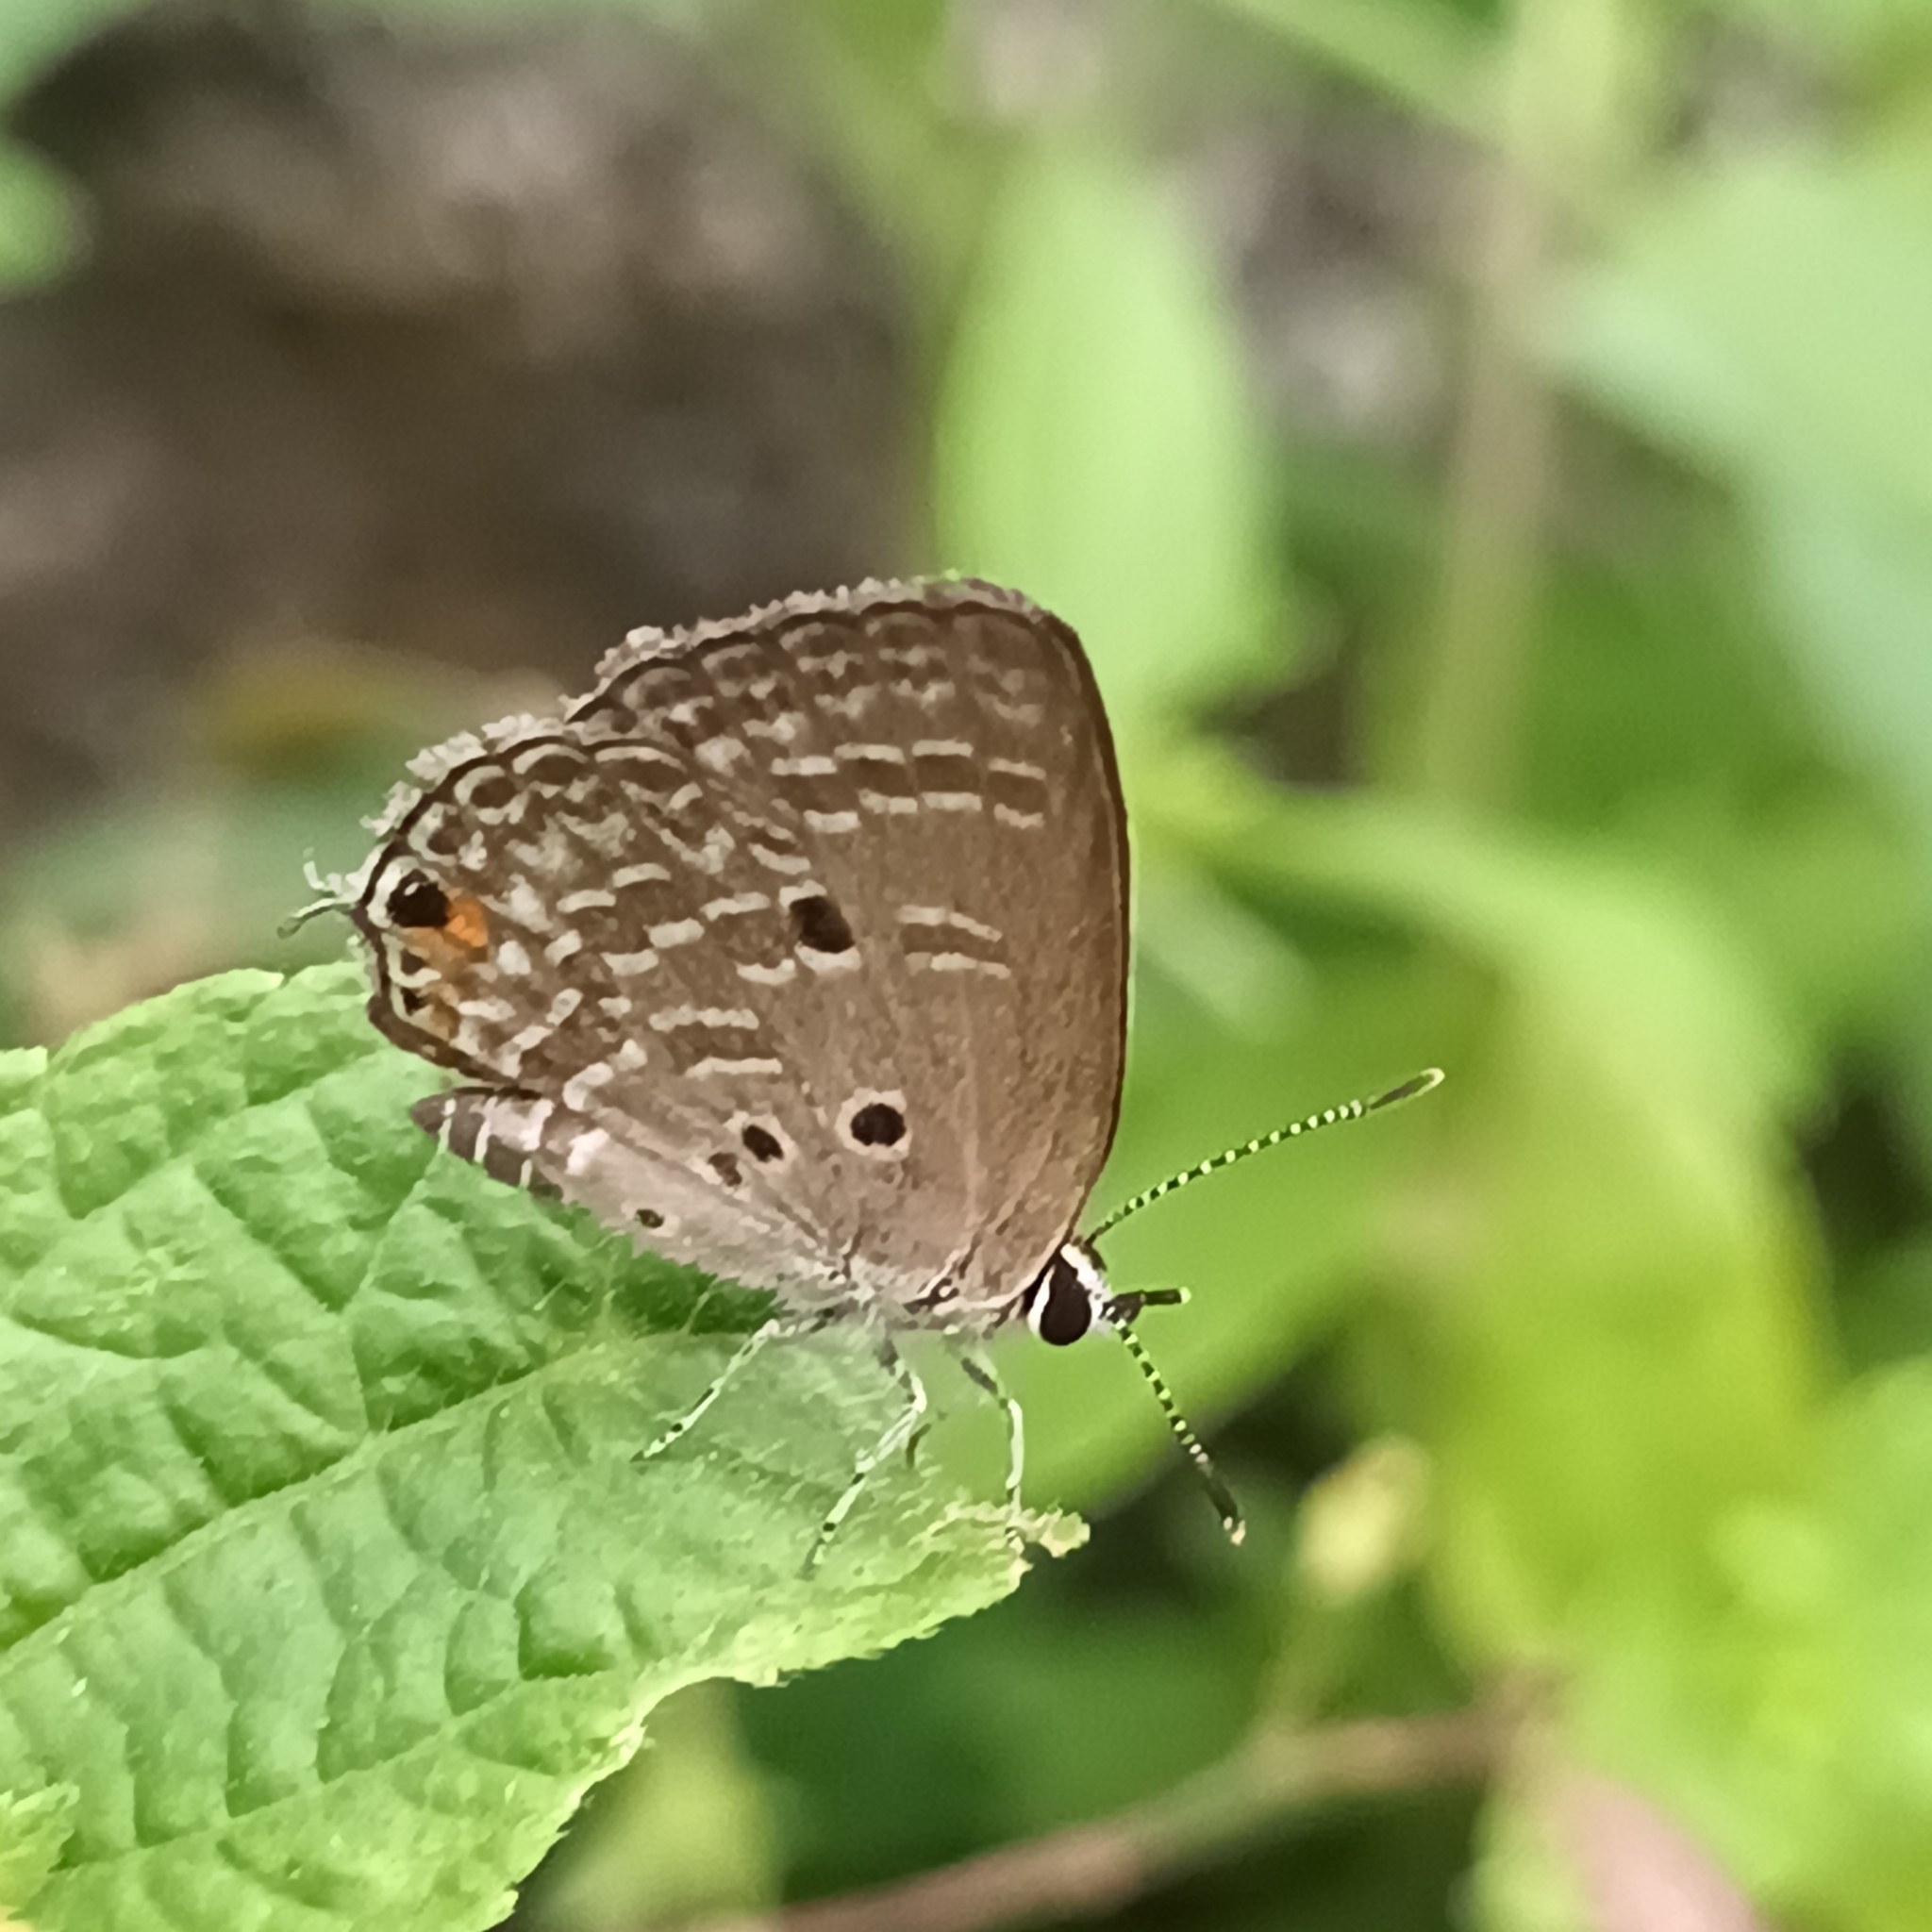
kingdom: Animalia
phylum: Arthropoda
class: Insecta
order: Lepidoptera
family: Lycaenidae
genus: Luthrodes
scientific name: Luthrodes pandava
